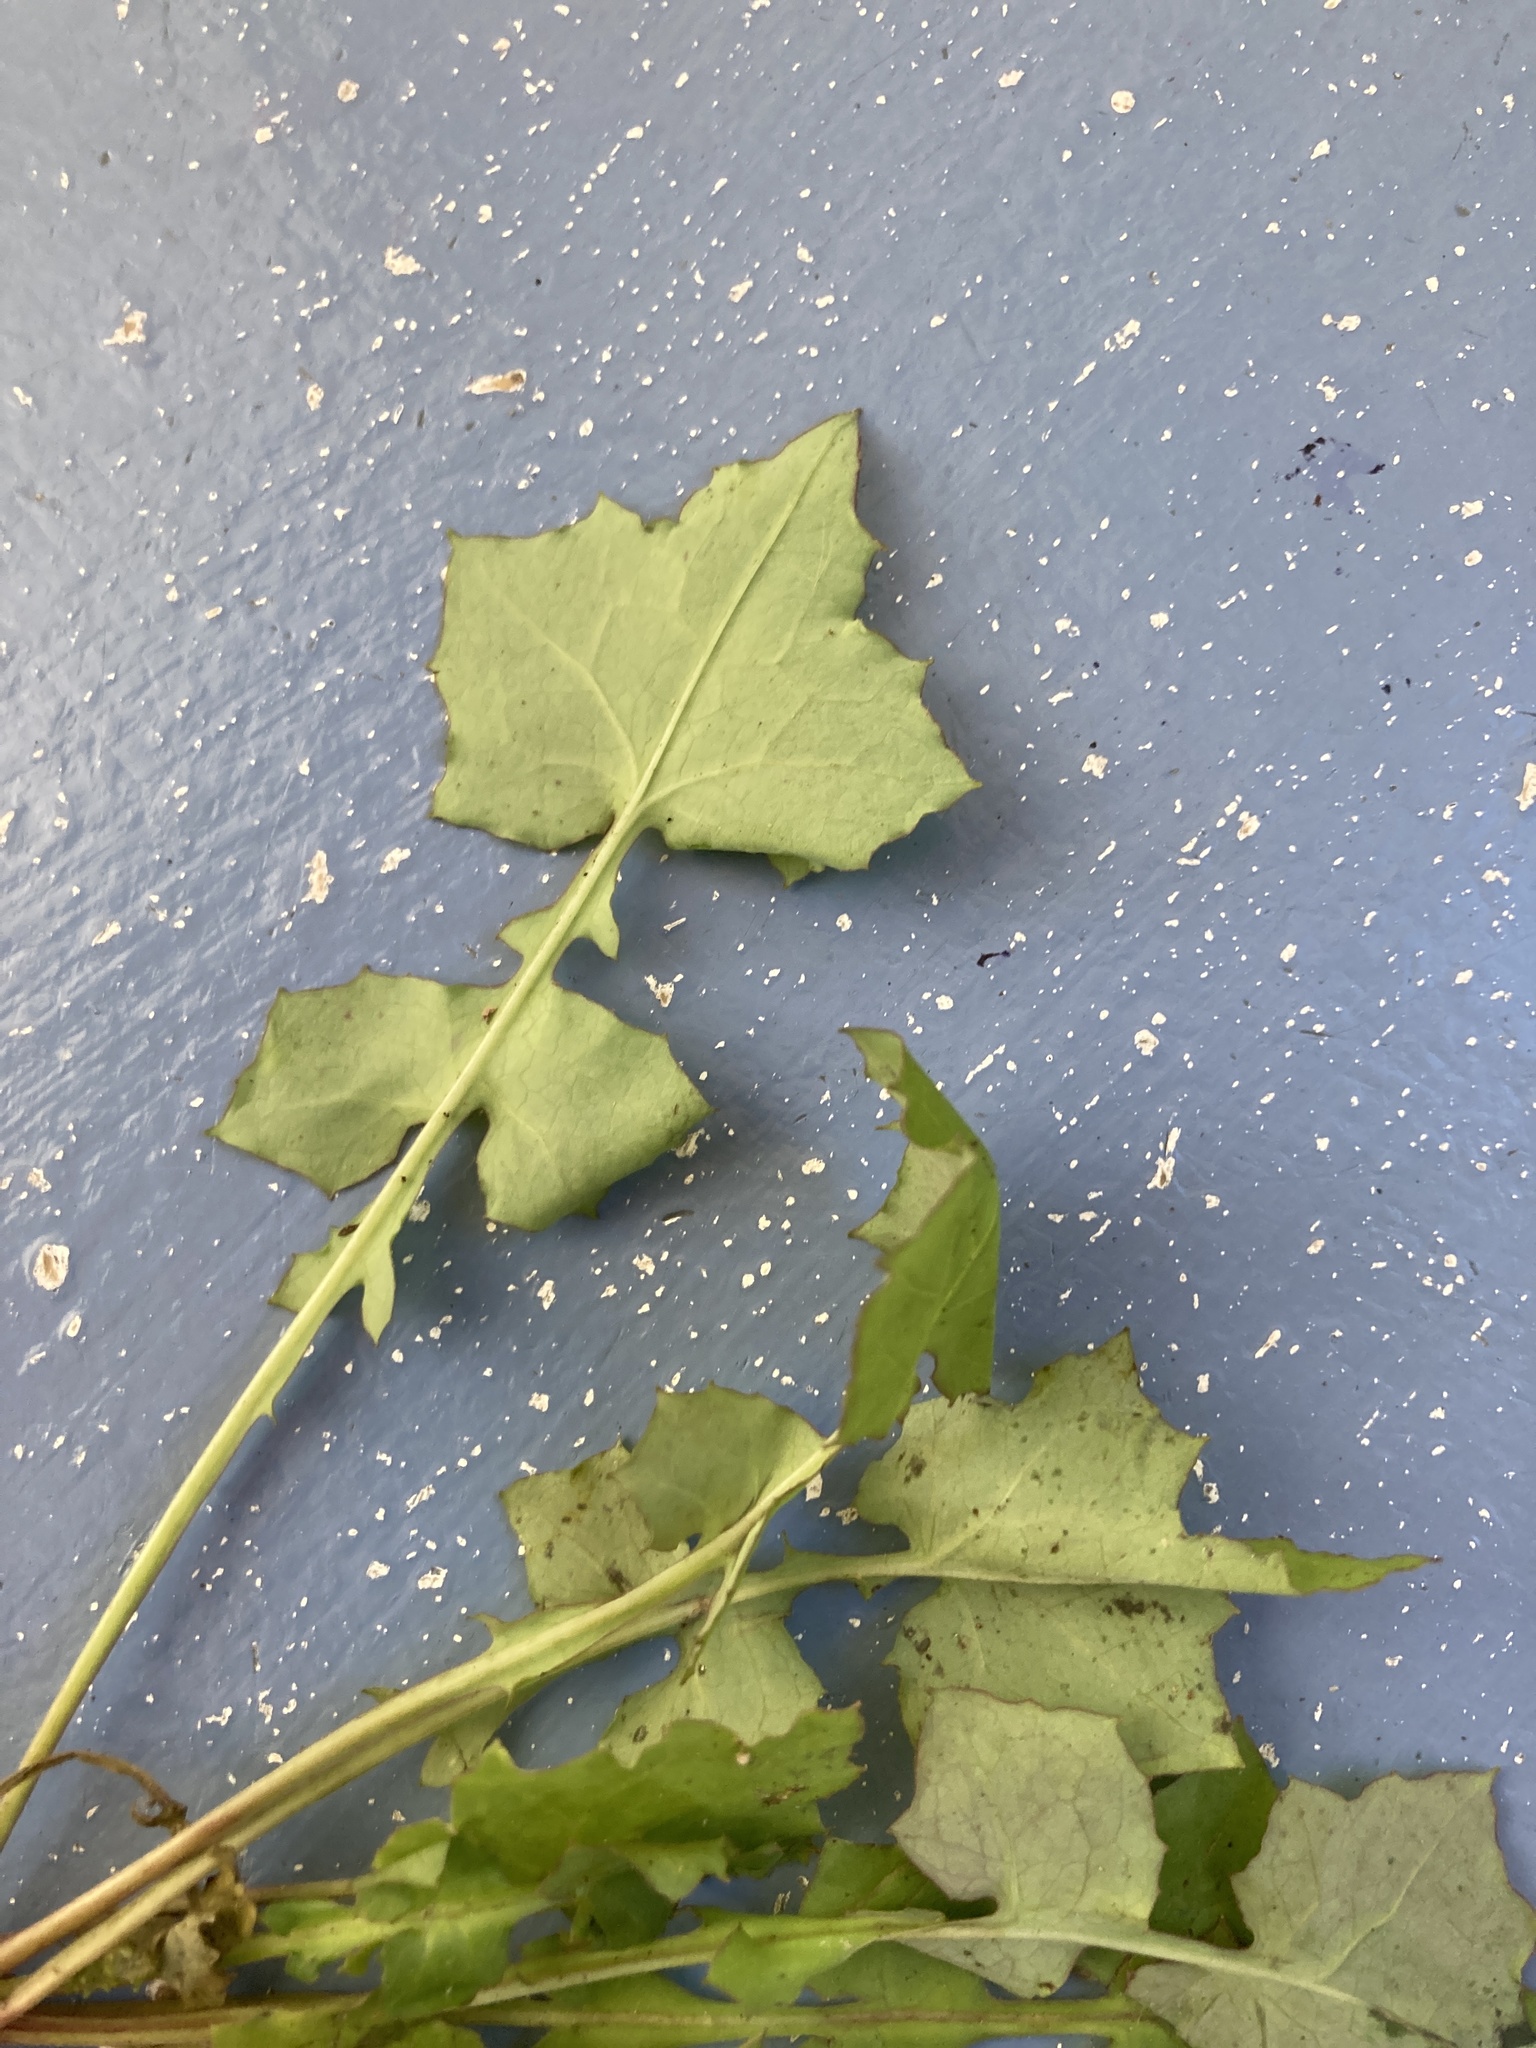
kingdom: Plantae
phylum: Tracheophyta
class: Magnoliopsida
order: Asterales
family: Asteraceae
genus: Mycelis
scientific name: Mycelis muralis
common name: Wall lettuce
